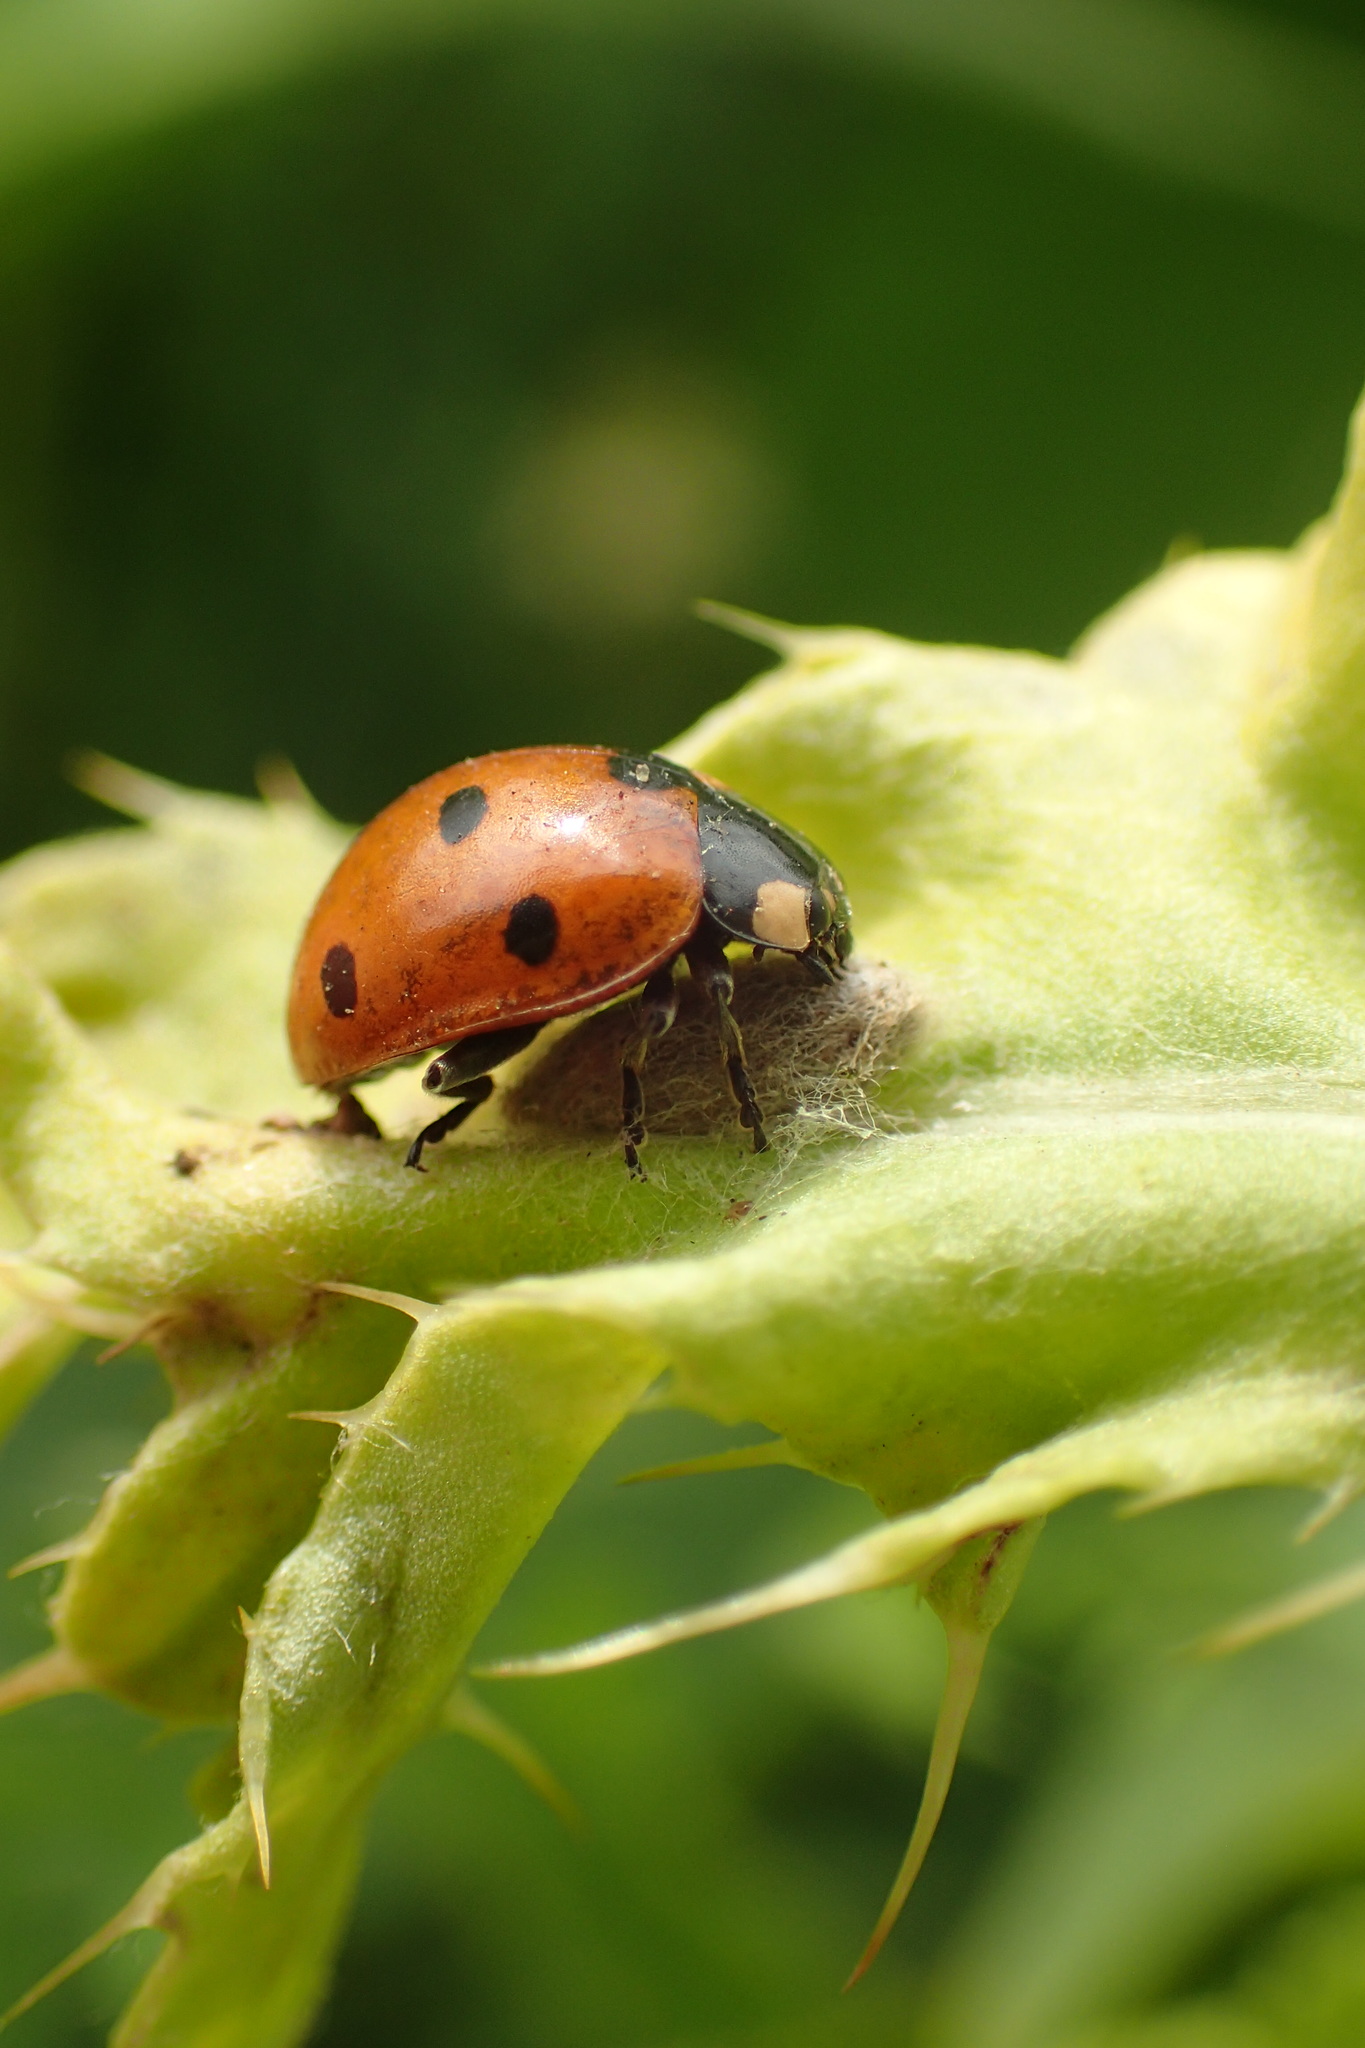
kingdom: Animalia
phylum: Arthropoda
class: Insecta
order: Hymenoptera
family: Braconidae
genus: Dinocampus
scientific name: Dinocampus coccinellae
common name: Braconid wasp
